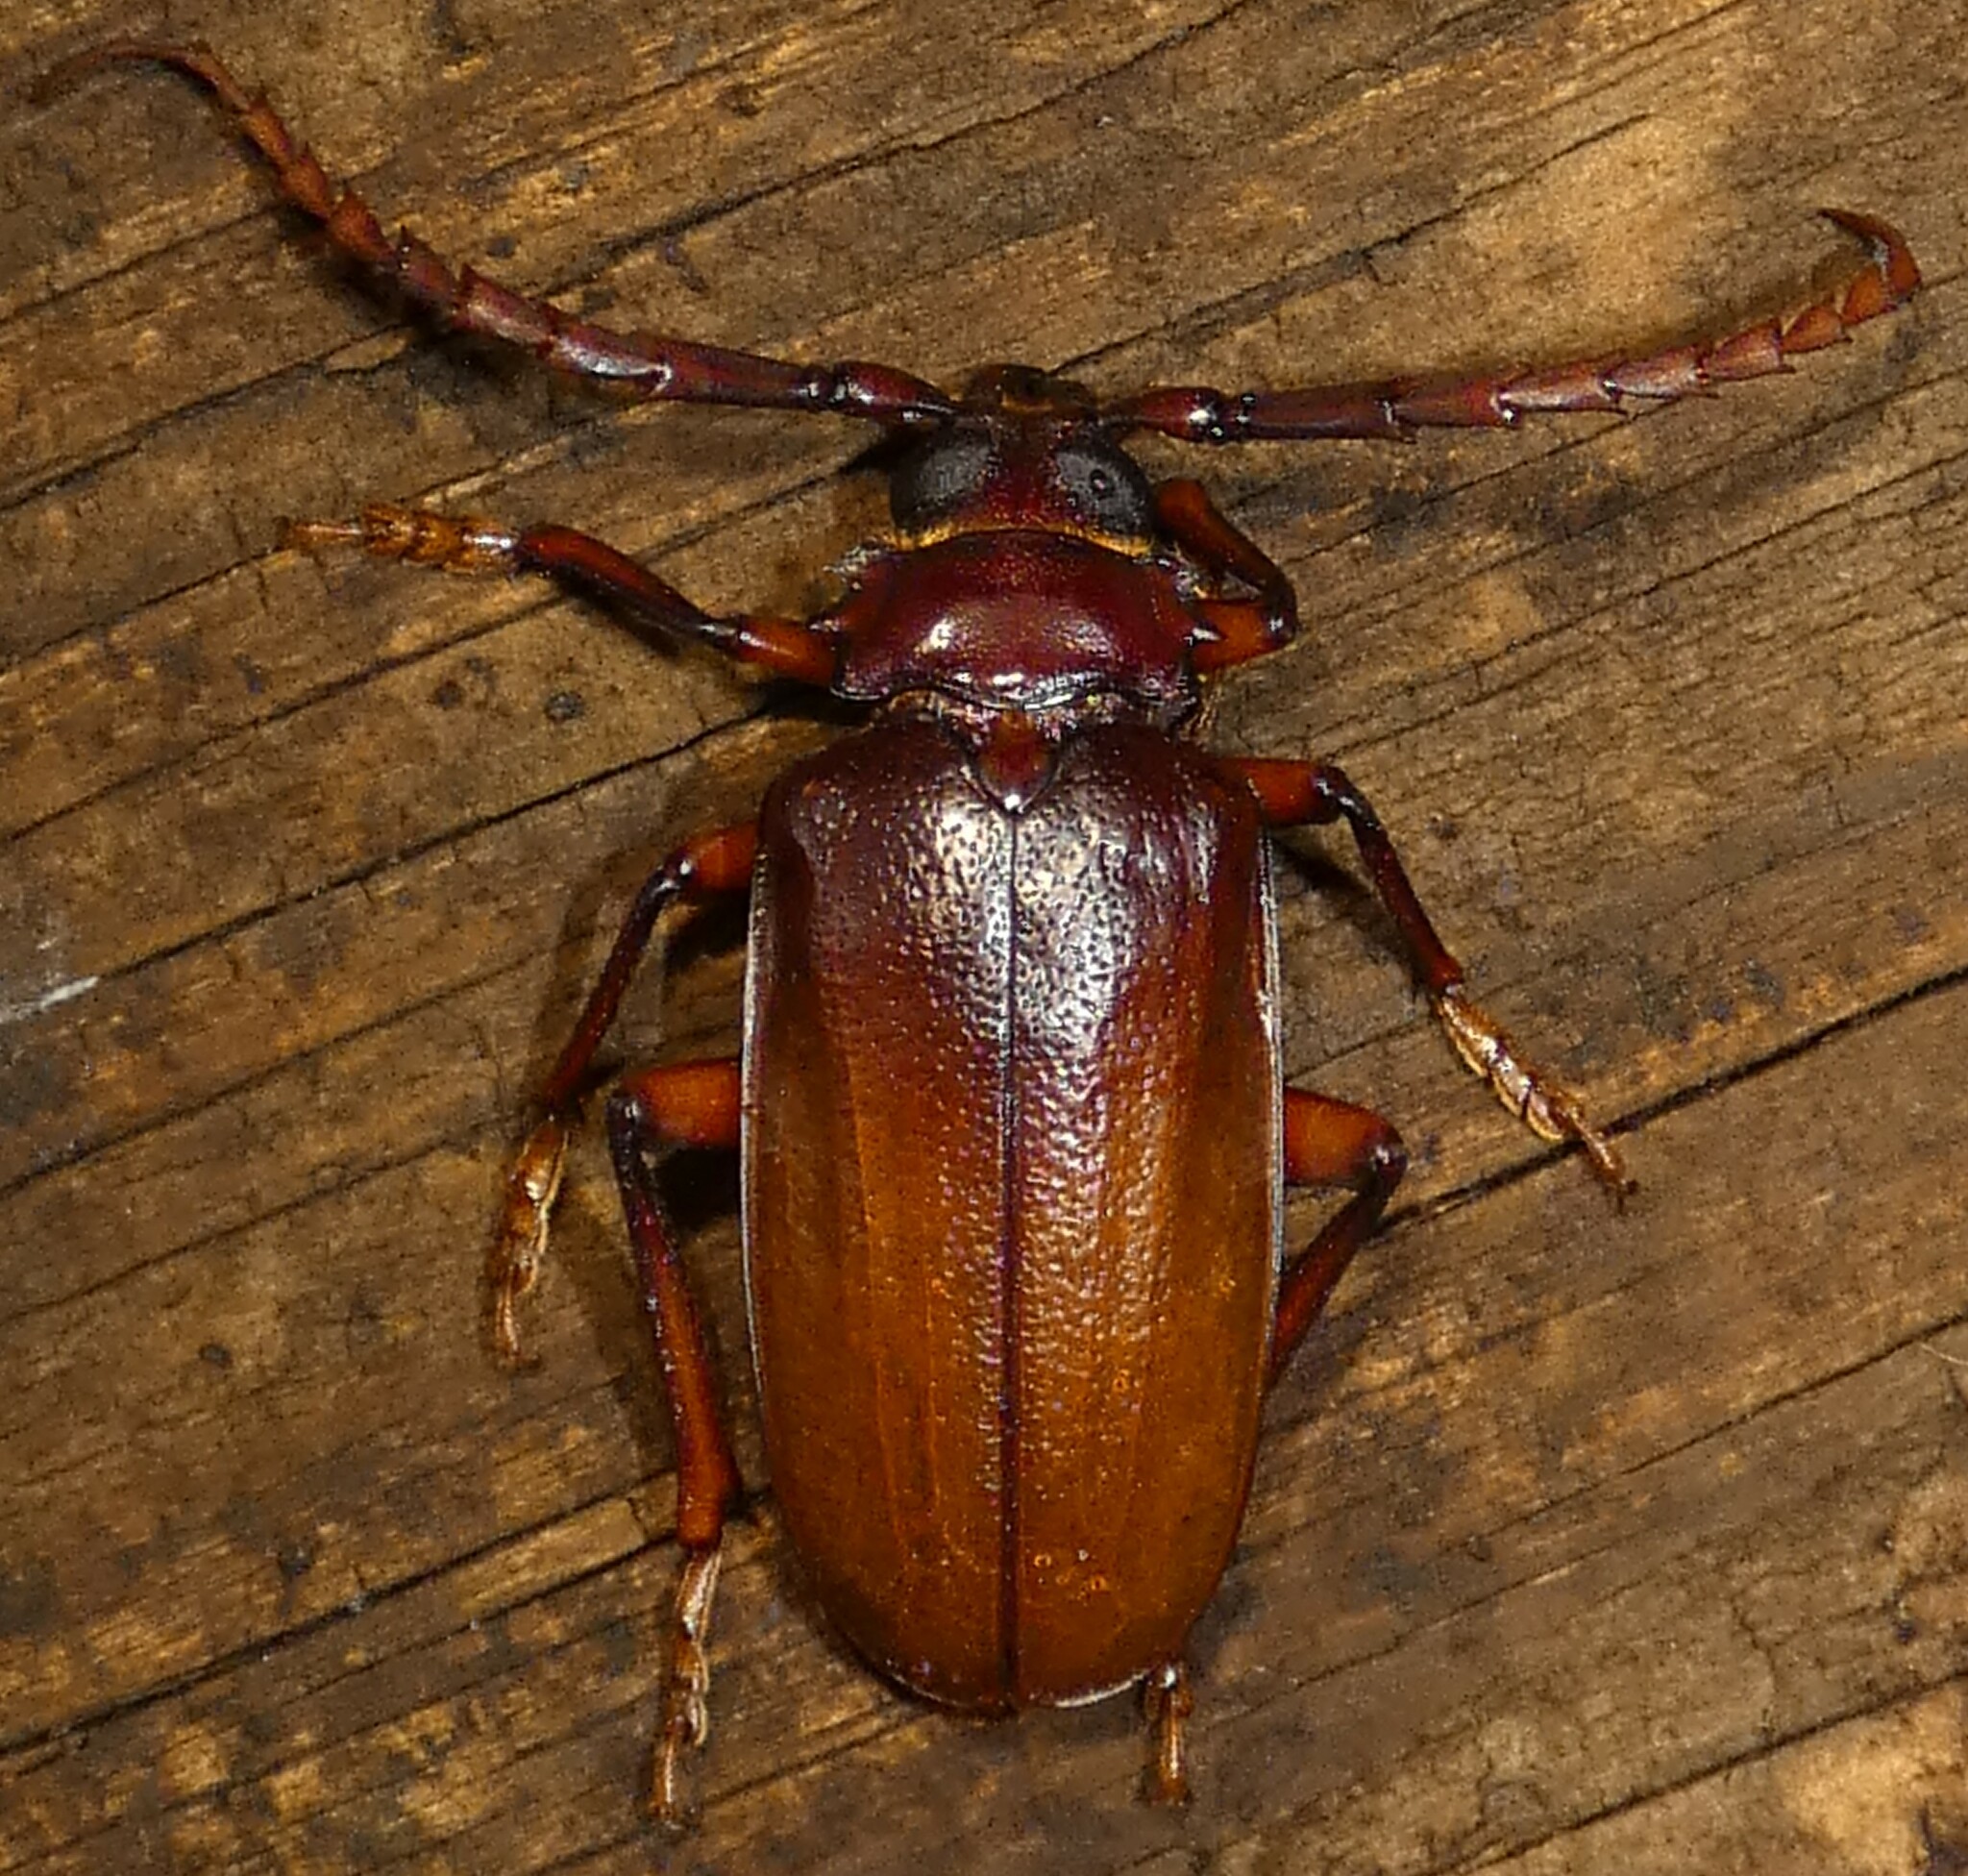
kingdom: Animalia
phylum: Arthropoda
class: Insecta
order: Coleoptera
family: Cerambycidae
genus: Prionus
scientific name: Prionus pocularis
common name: Tooth-necked longhorn beetle
